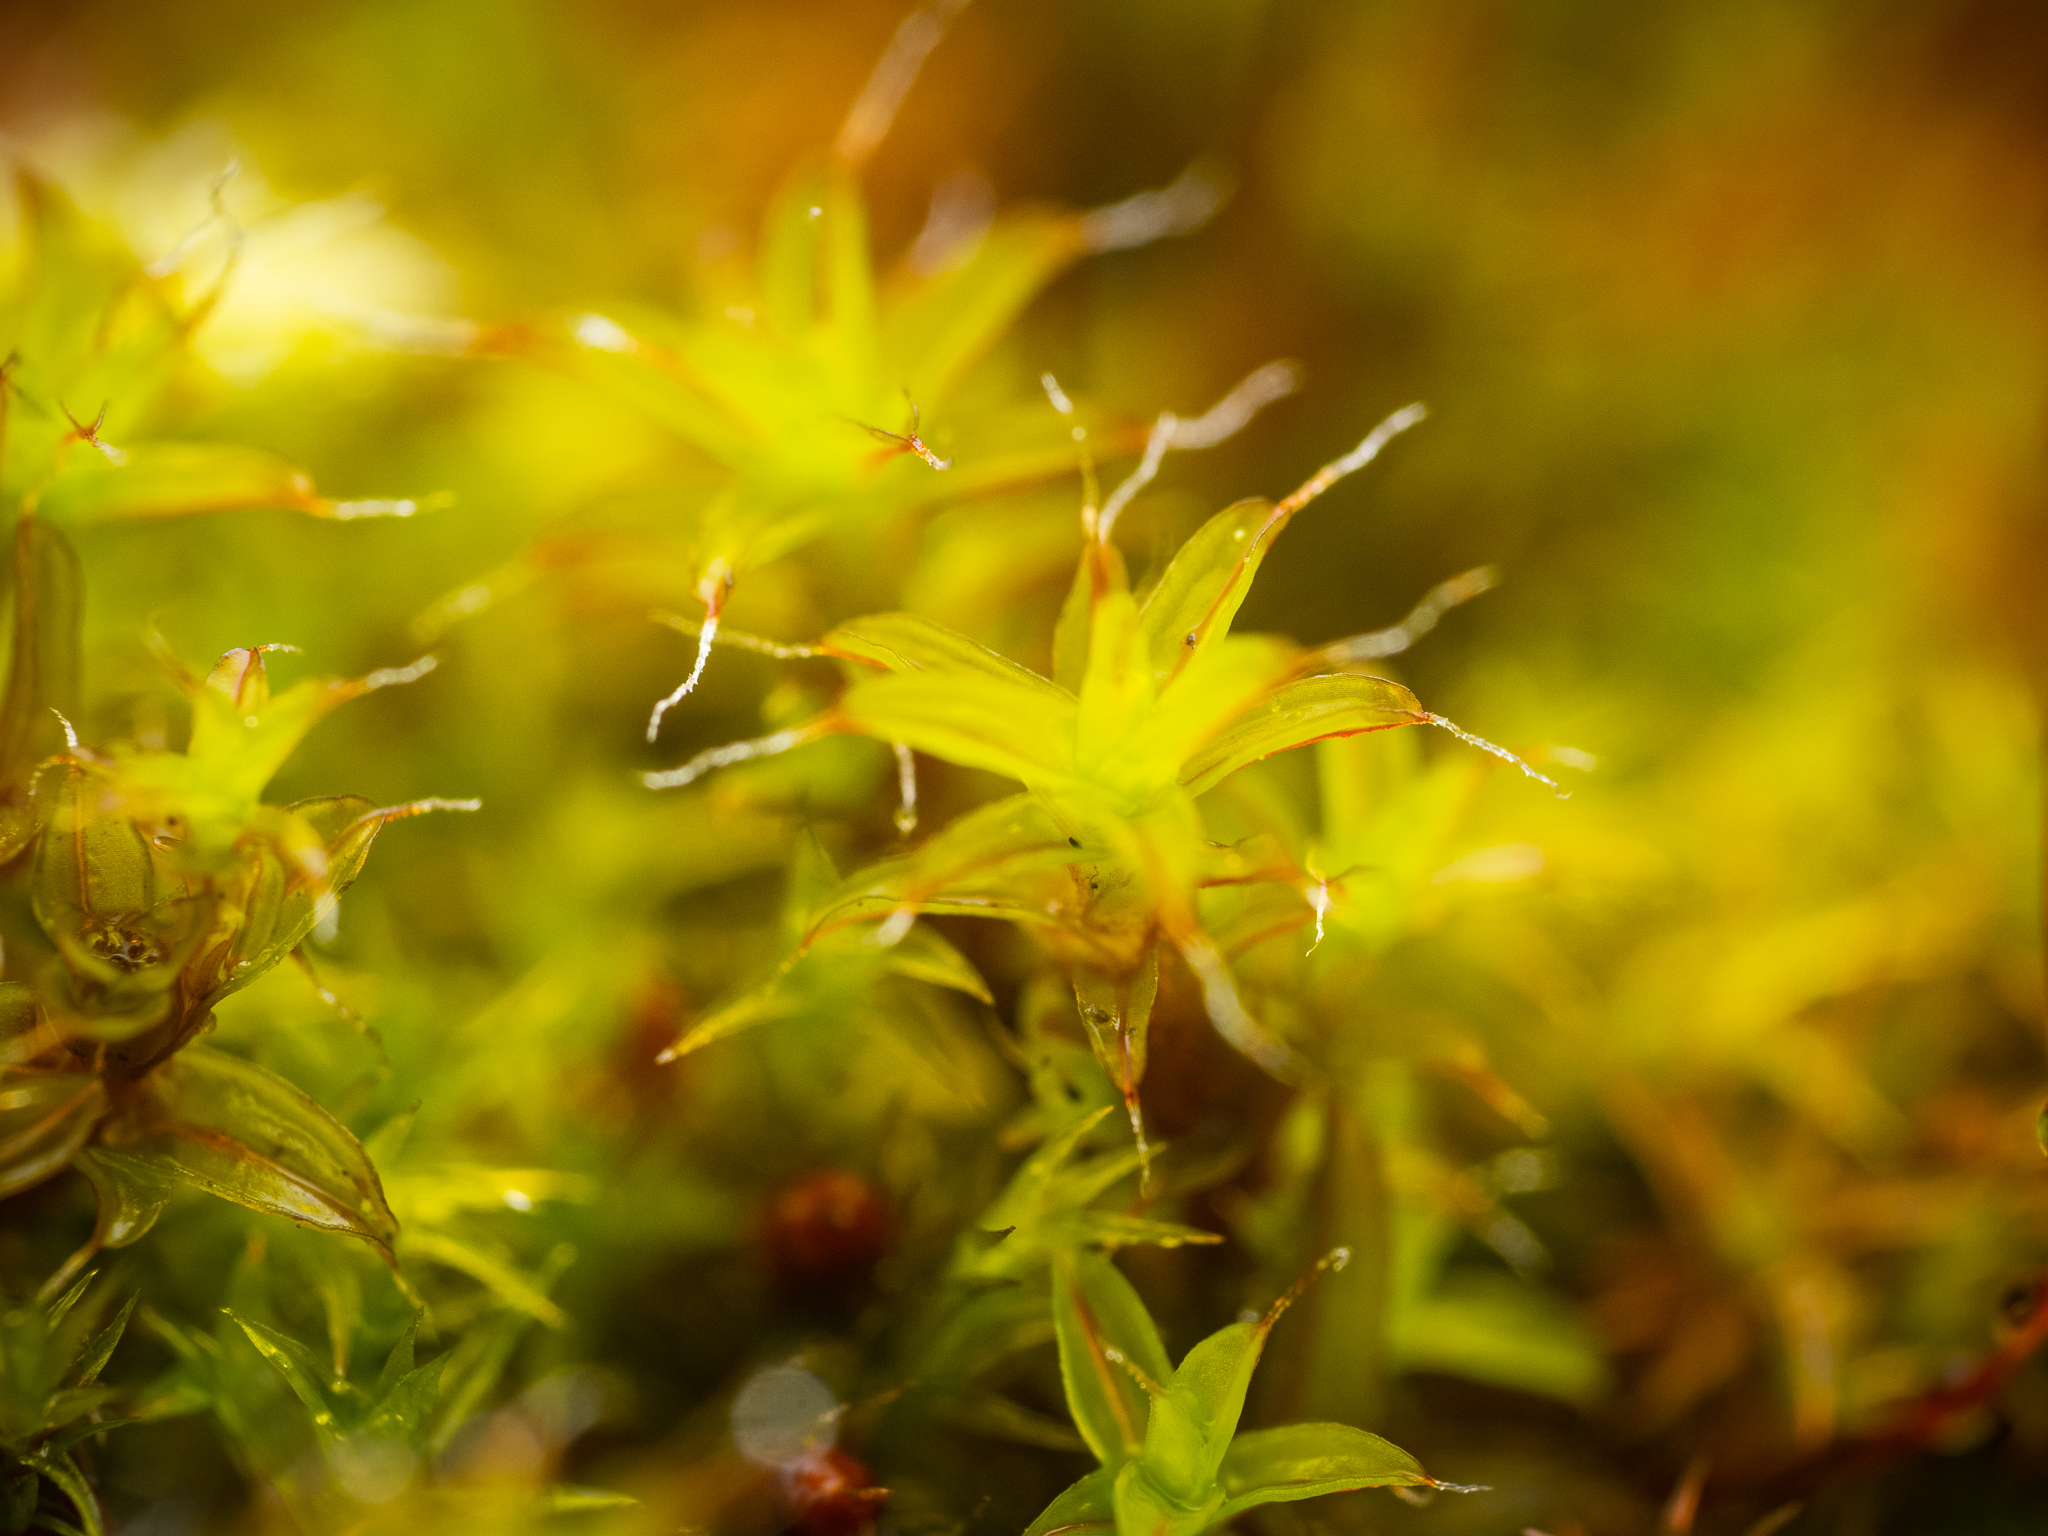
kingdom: Plantae
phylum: Bryophyta
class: Bryopsida
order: Pottiales
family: Pottiaceae
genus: Syntrichia
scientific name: Syntrichia ruralis
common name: Sidewalk screw moss
